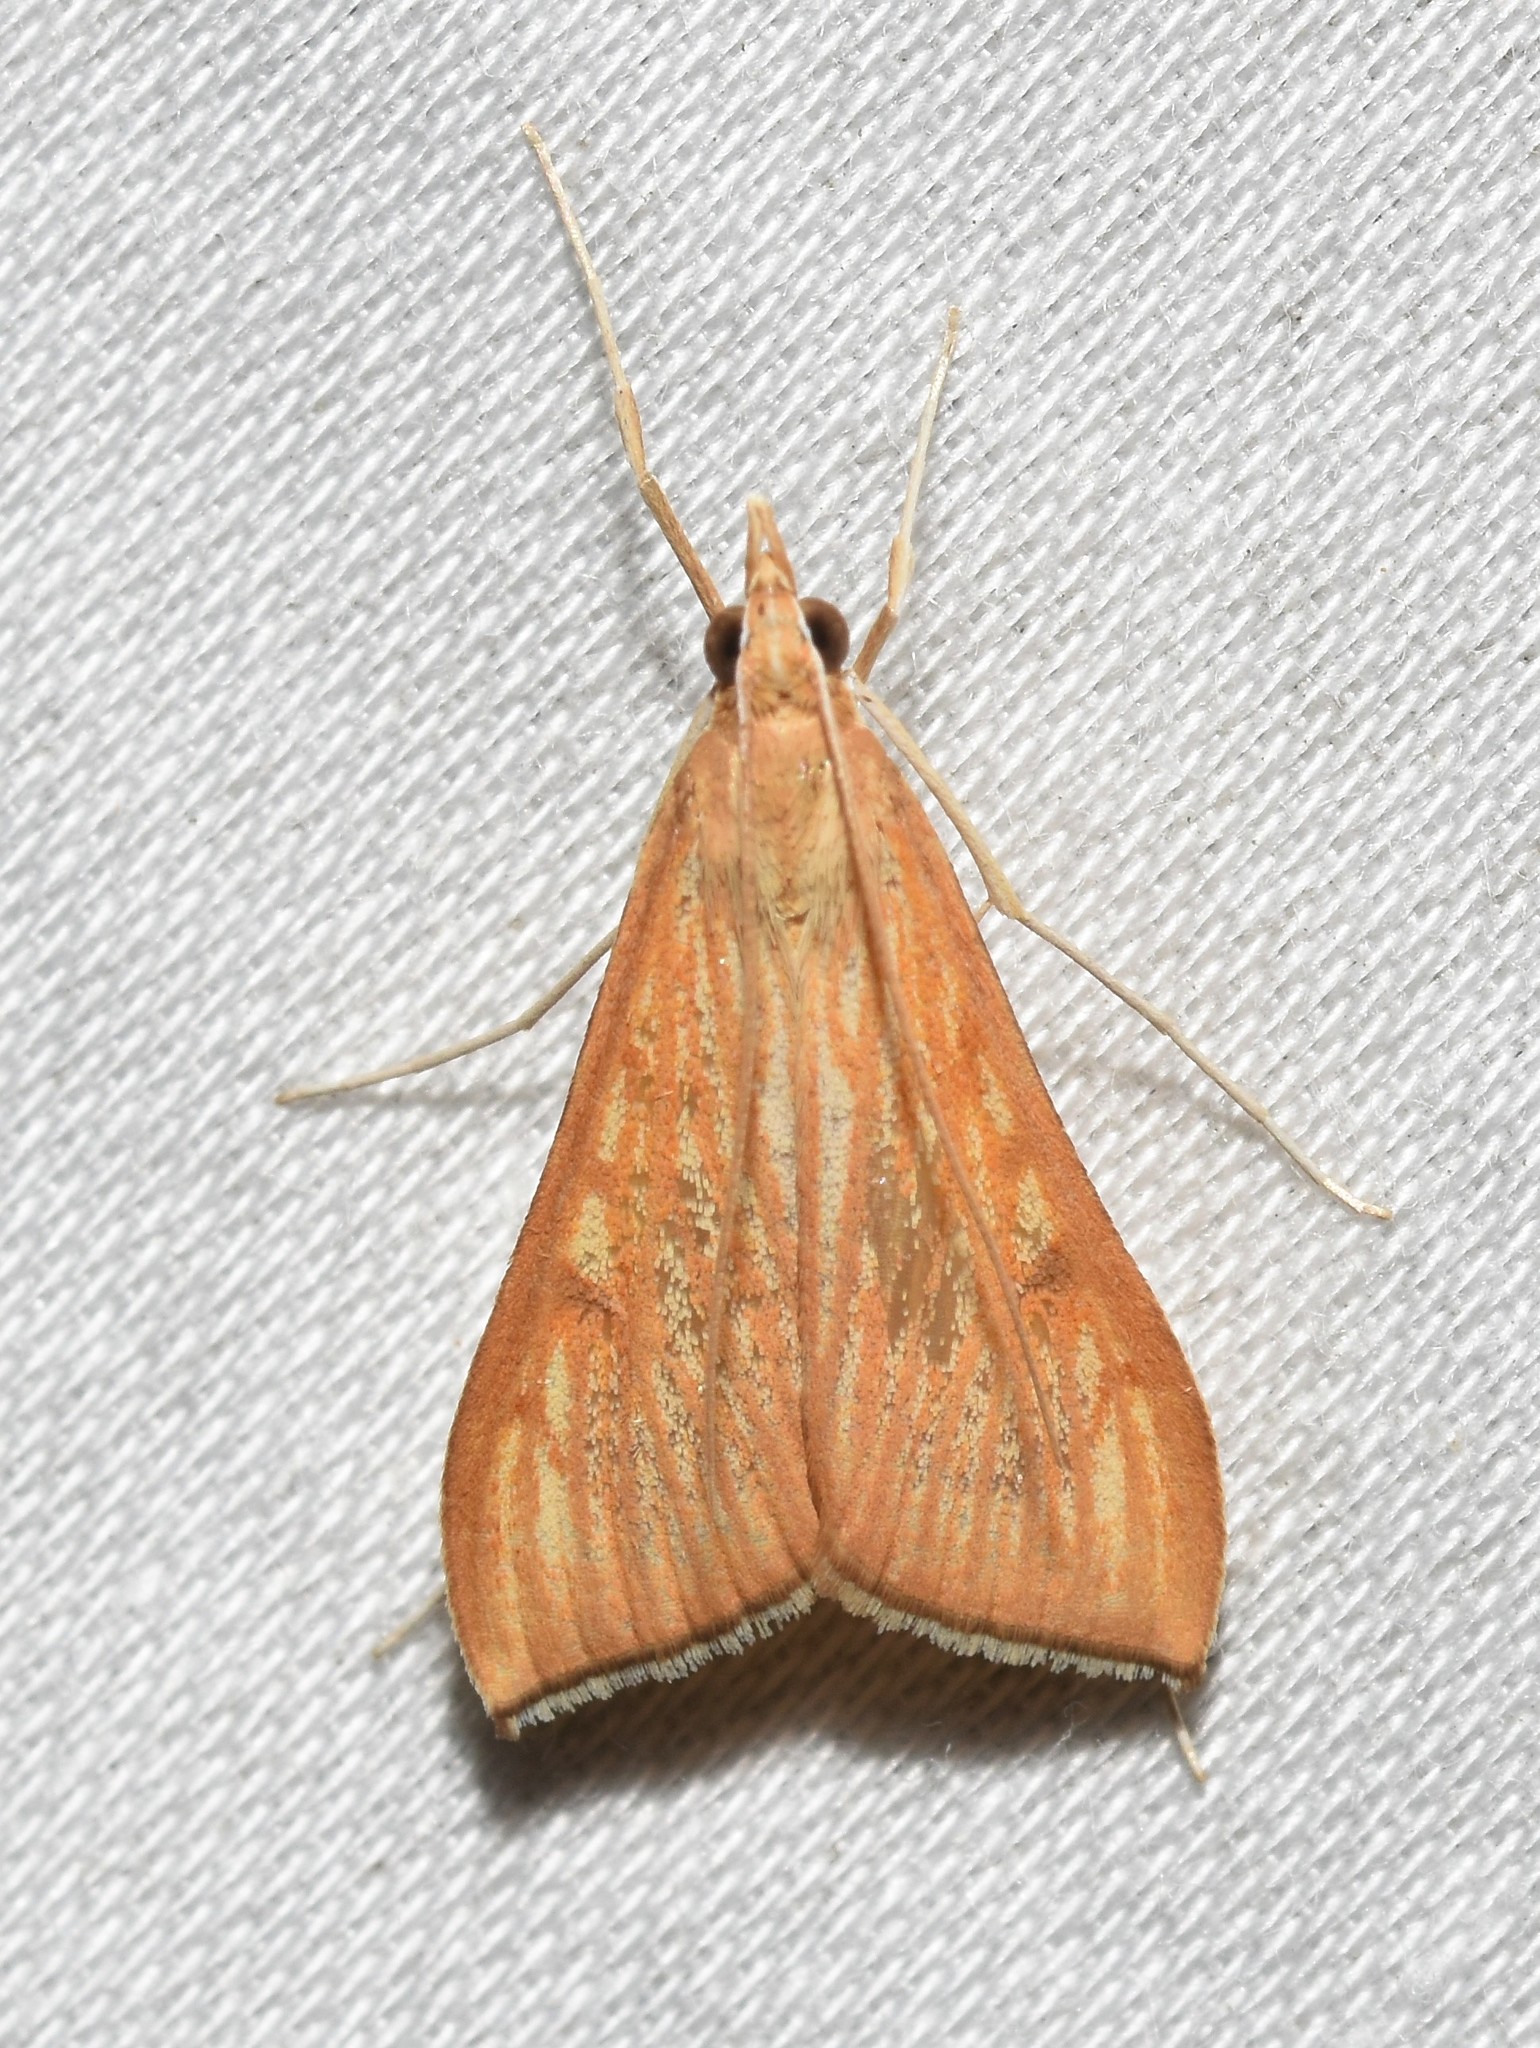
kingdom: Animalia
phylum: Arthropoda
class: Insecta
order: Lepidoptera
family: Crambidae
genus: Antigastra
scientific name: Antigastra catalaunalis
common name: Spanish dot
